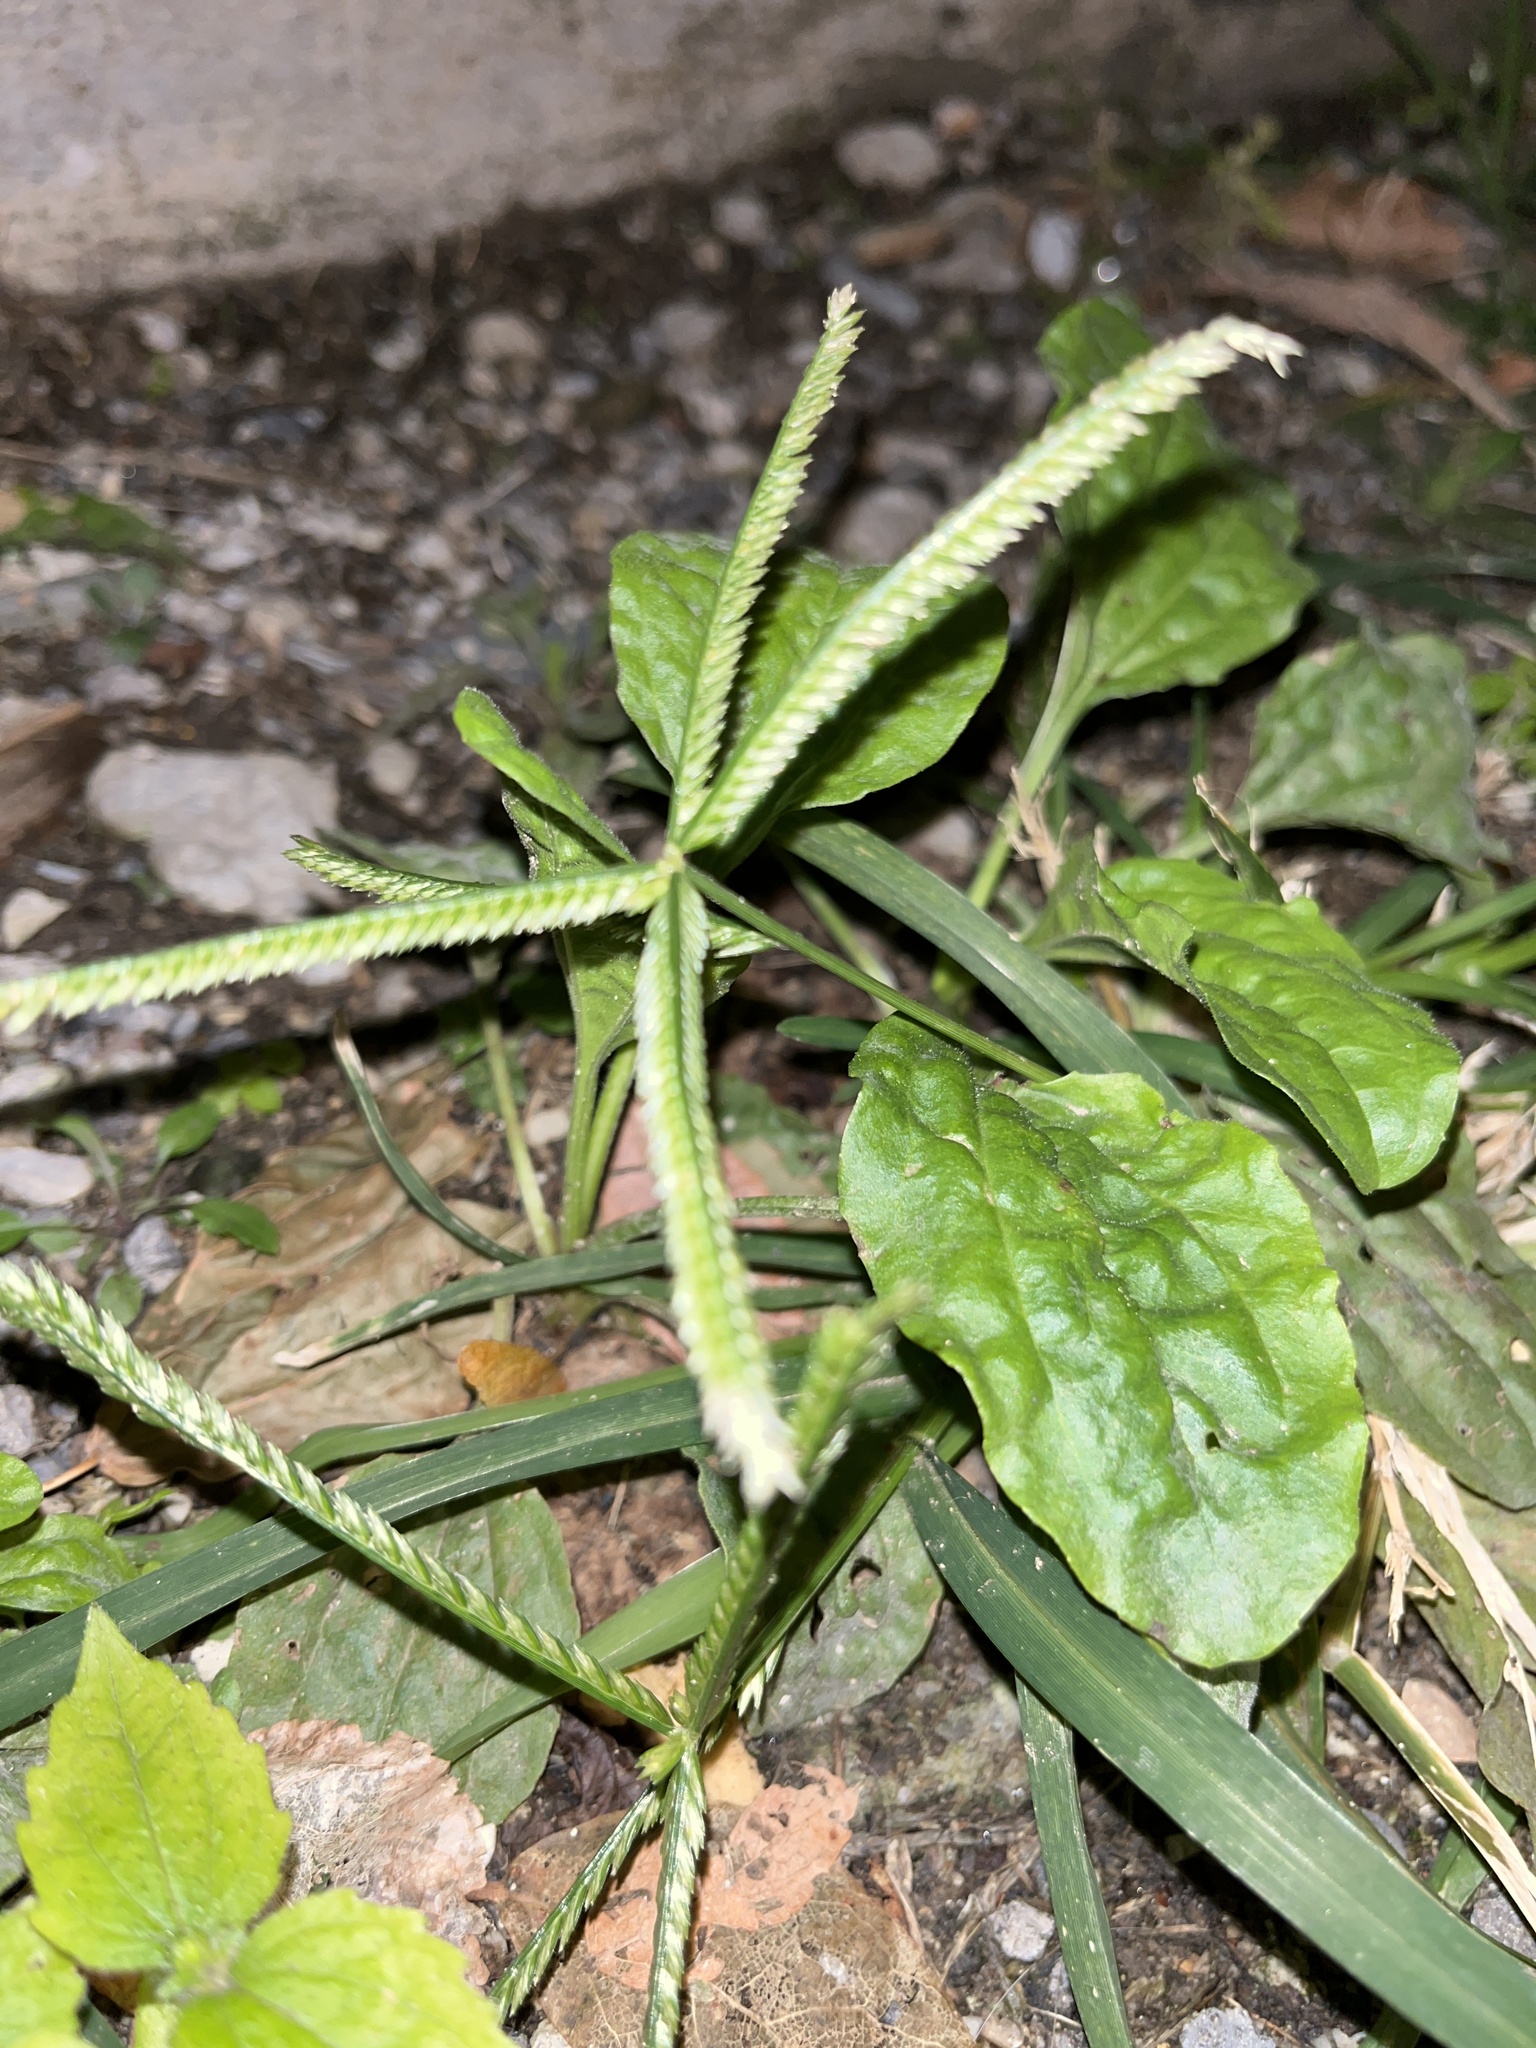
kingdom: Plantae
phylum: Tracheophyta
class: Liliopsida
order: Poales
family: Poaceae
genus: Eleusine
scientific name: Eleusine indica
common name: Yard-grass
